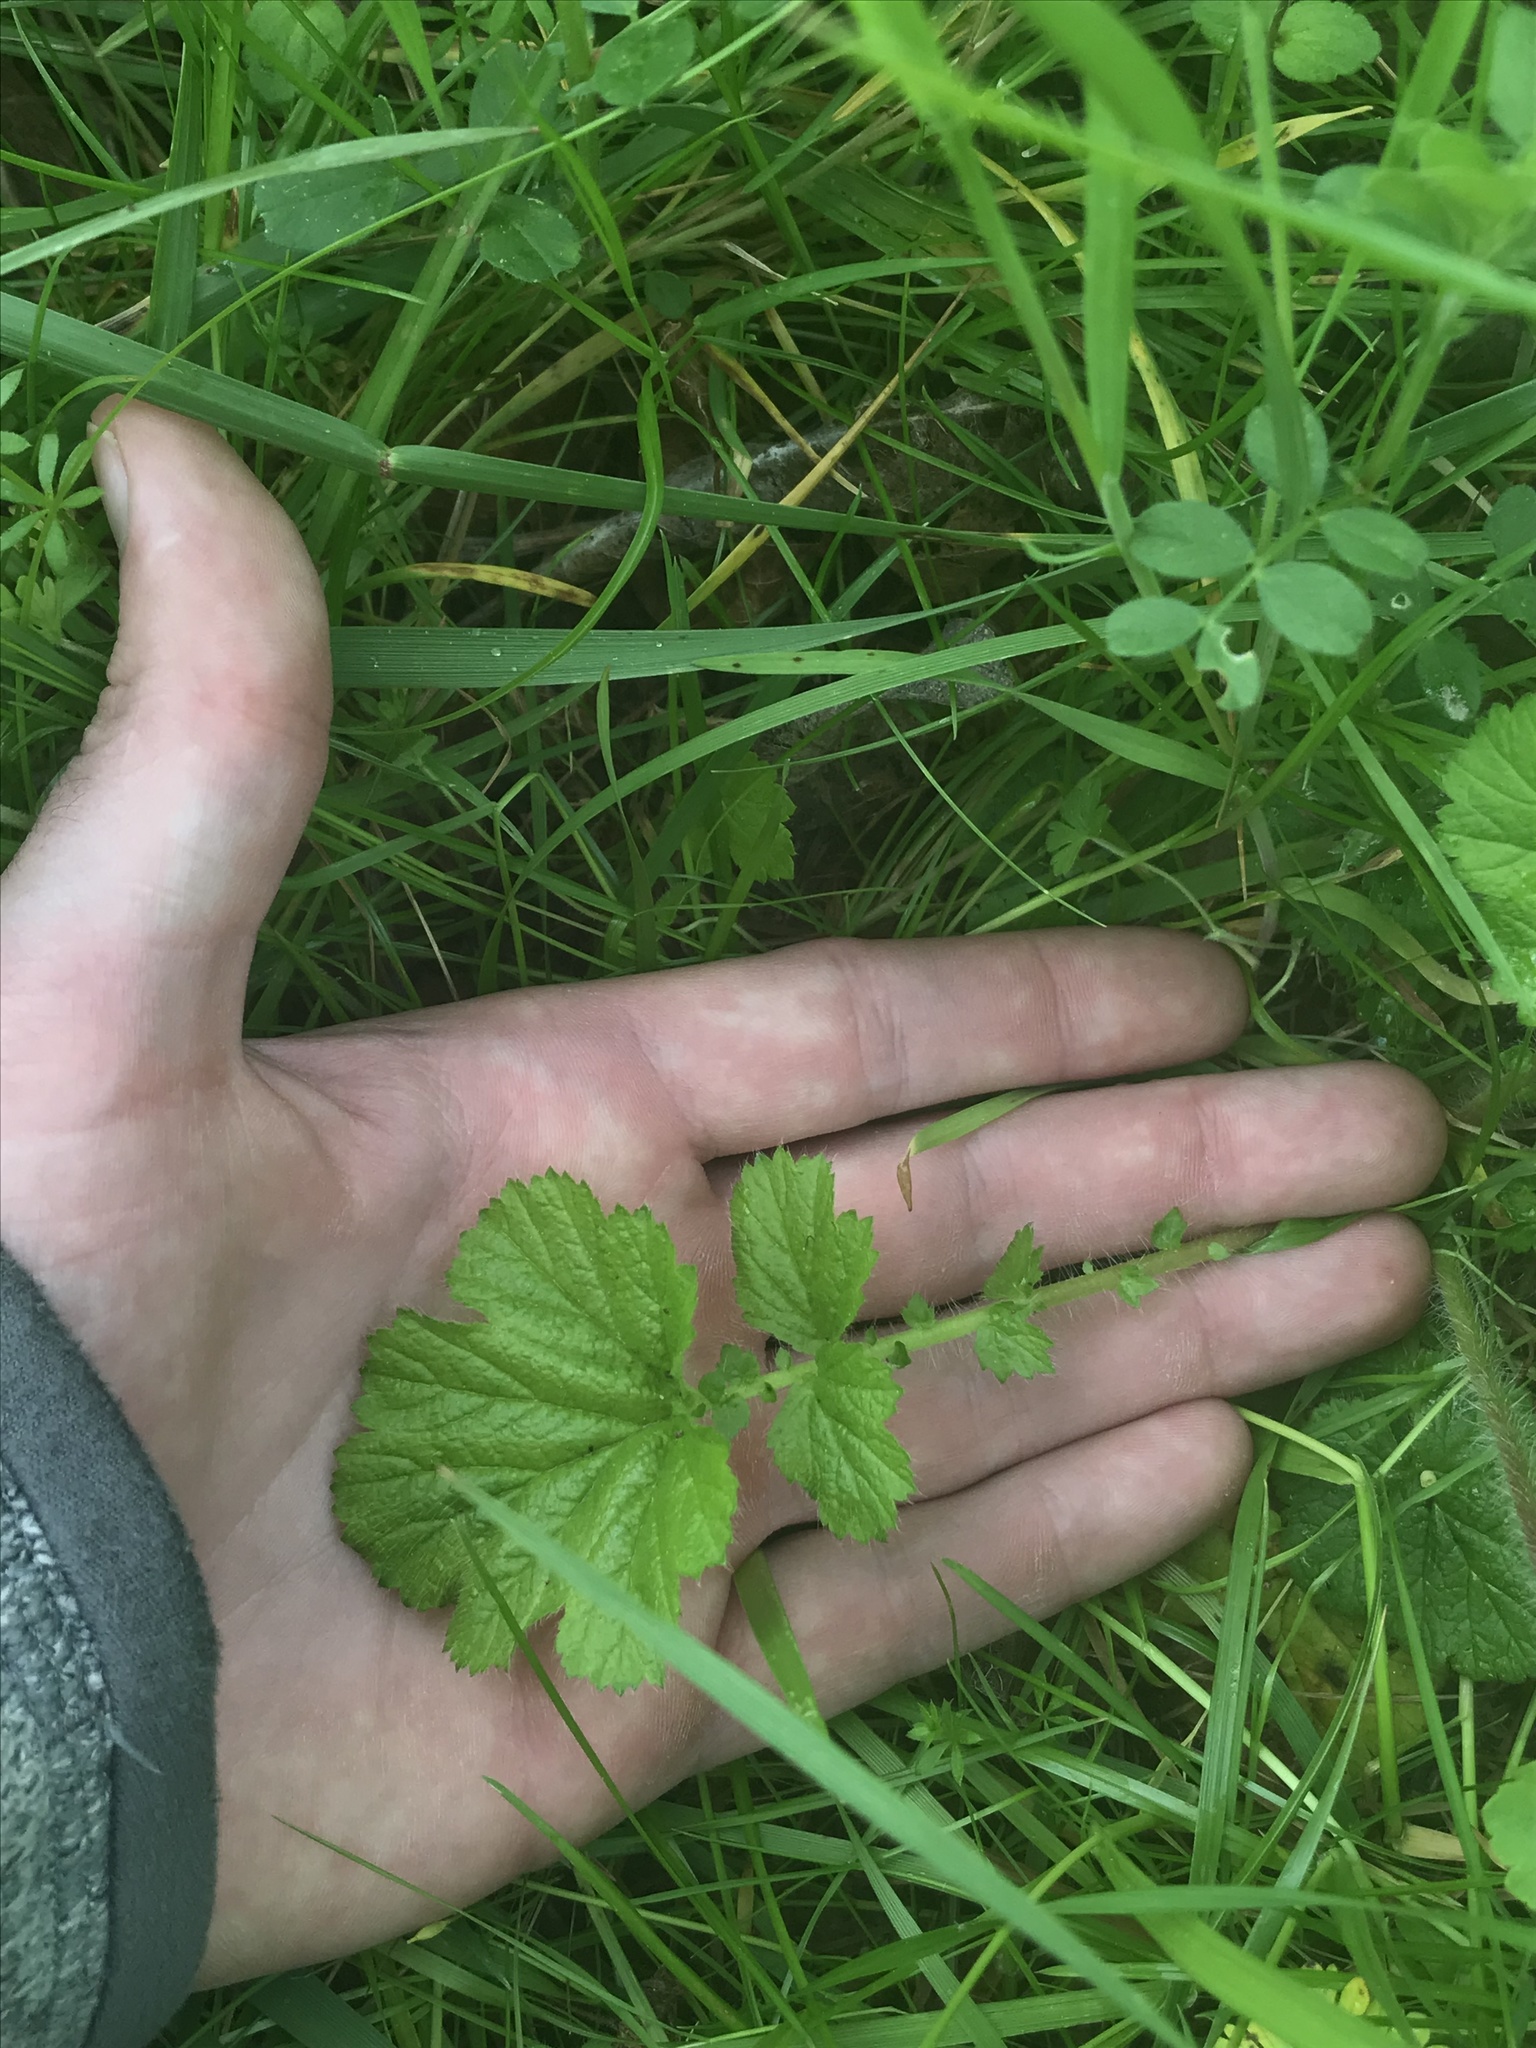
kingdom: Plantae
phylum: Tracheophyta
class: Magnoliopsida
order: Rosales
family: Rosaceae
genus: Geum
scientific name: Geum macrophyllum
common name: Large-leaved avens
